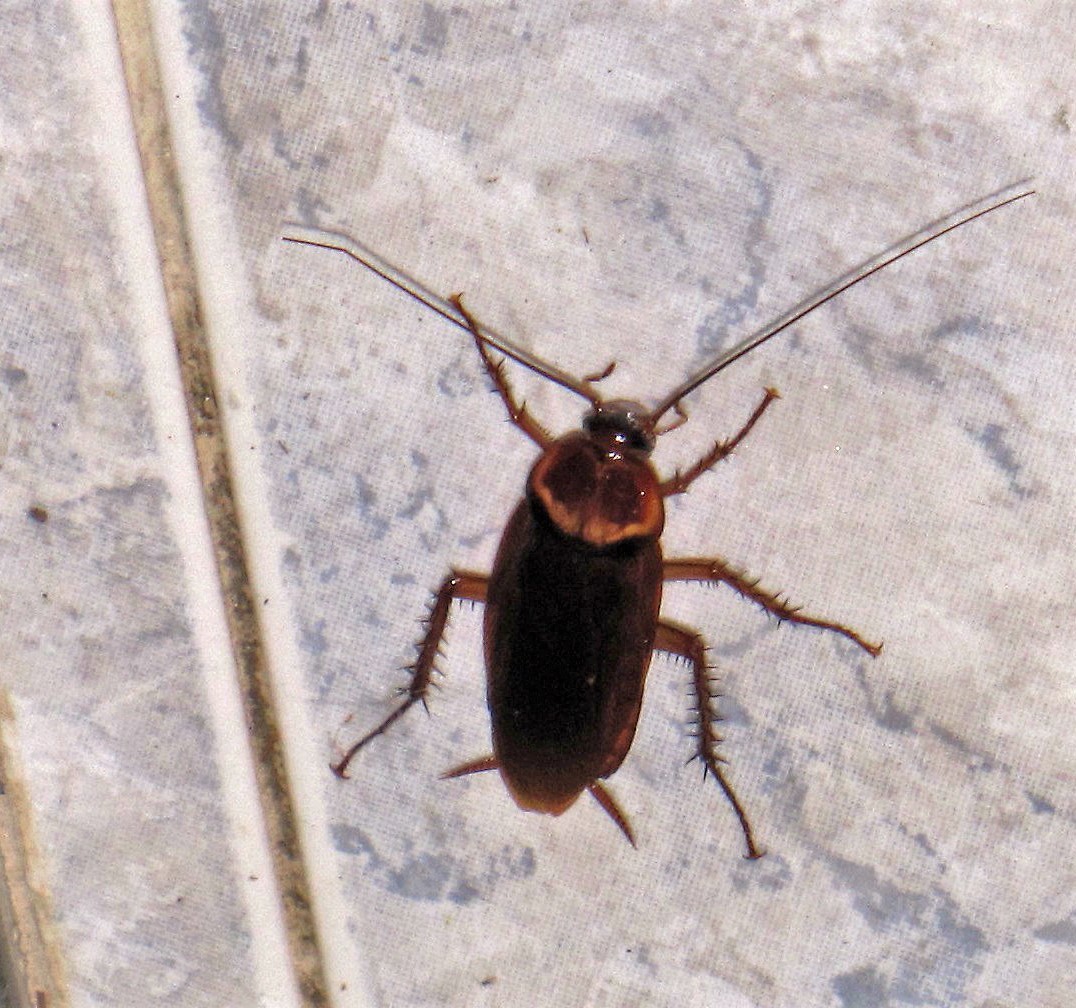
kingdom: Animalia
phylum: Arthropoda
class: Insecta
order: Blattodea
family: Blattidae
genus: Periplaneta
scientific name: Periplaneta americana
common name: American cockroach
